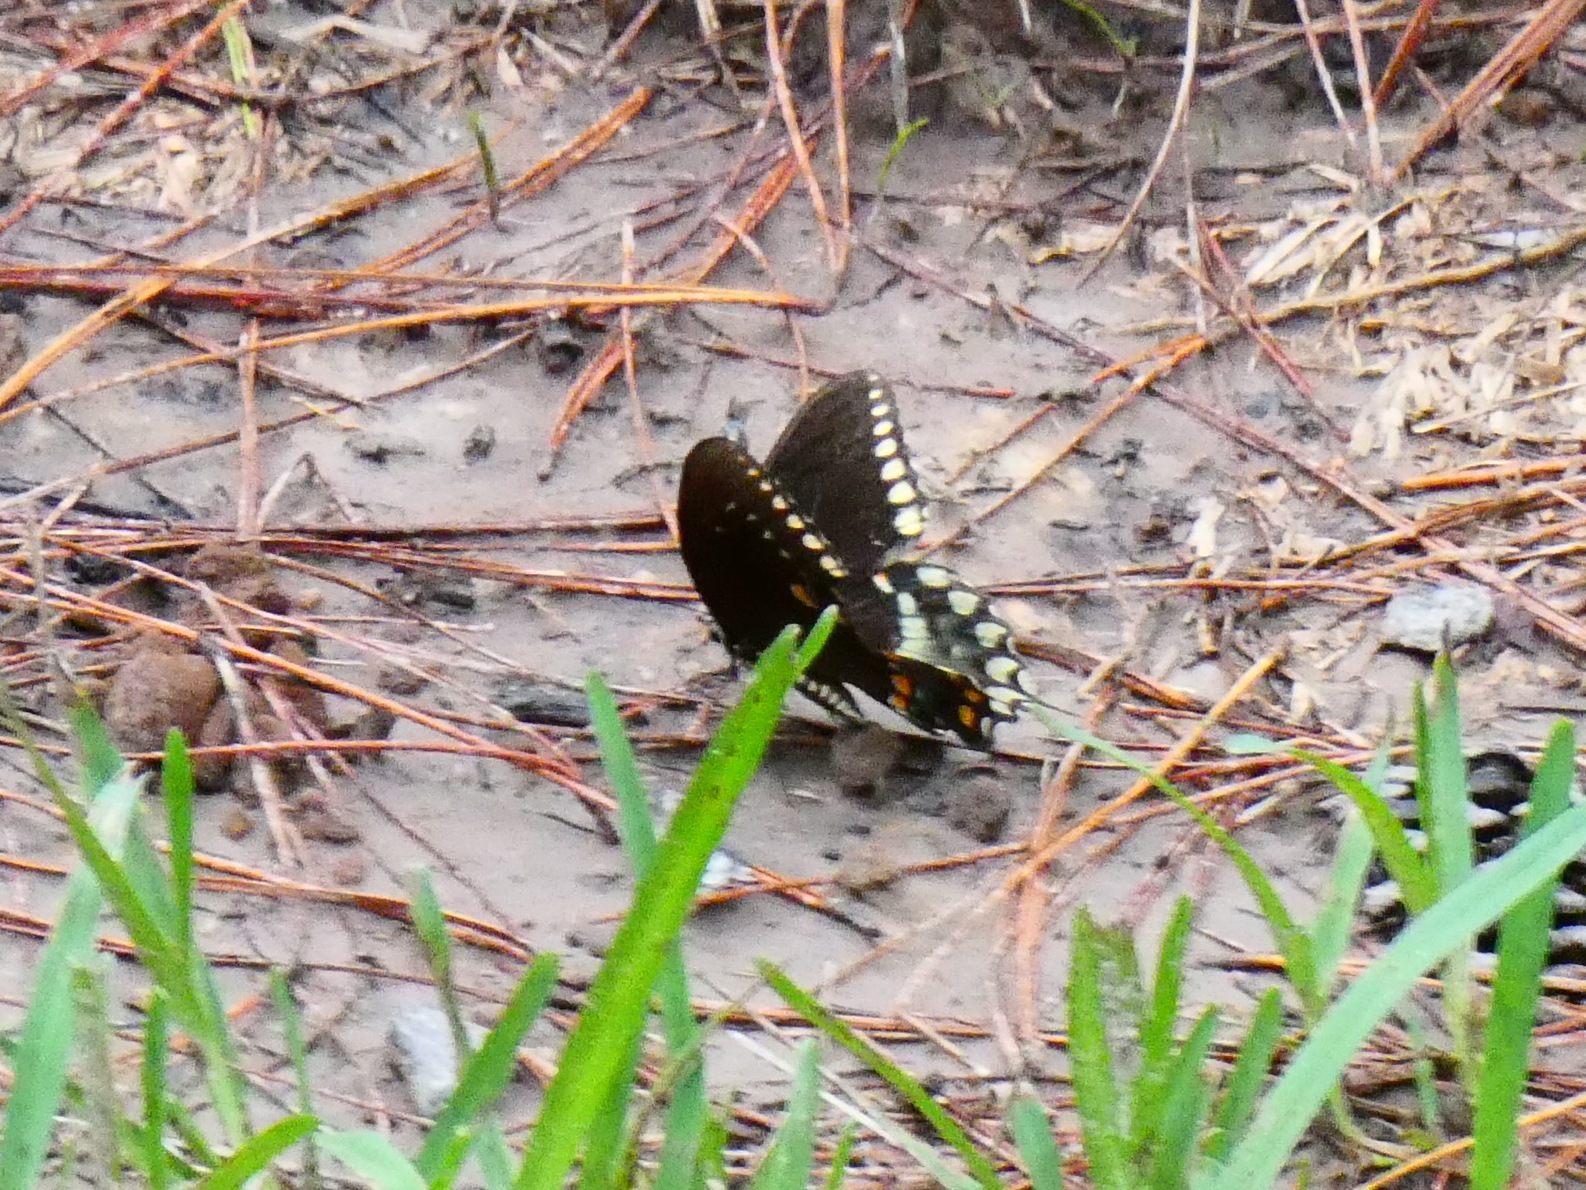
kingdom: Animalia
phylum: Arthropoda
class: Insecta
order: Lepidoptera
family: Papilionidae
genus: Papilio
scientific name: Papilio troilus
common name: Spicebush swallowtail
